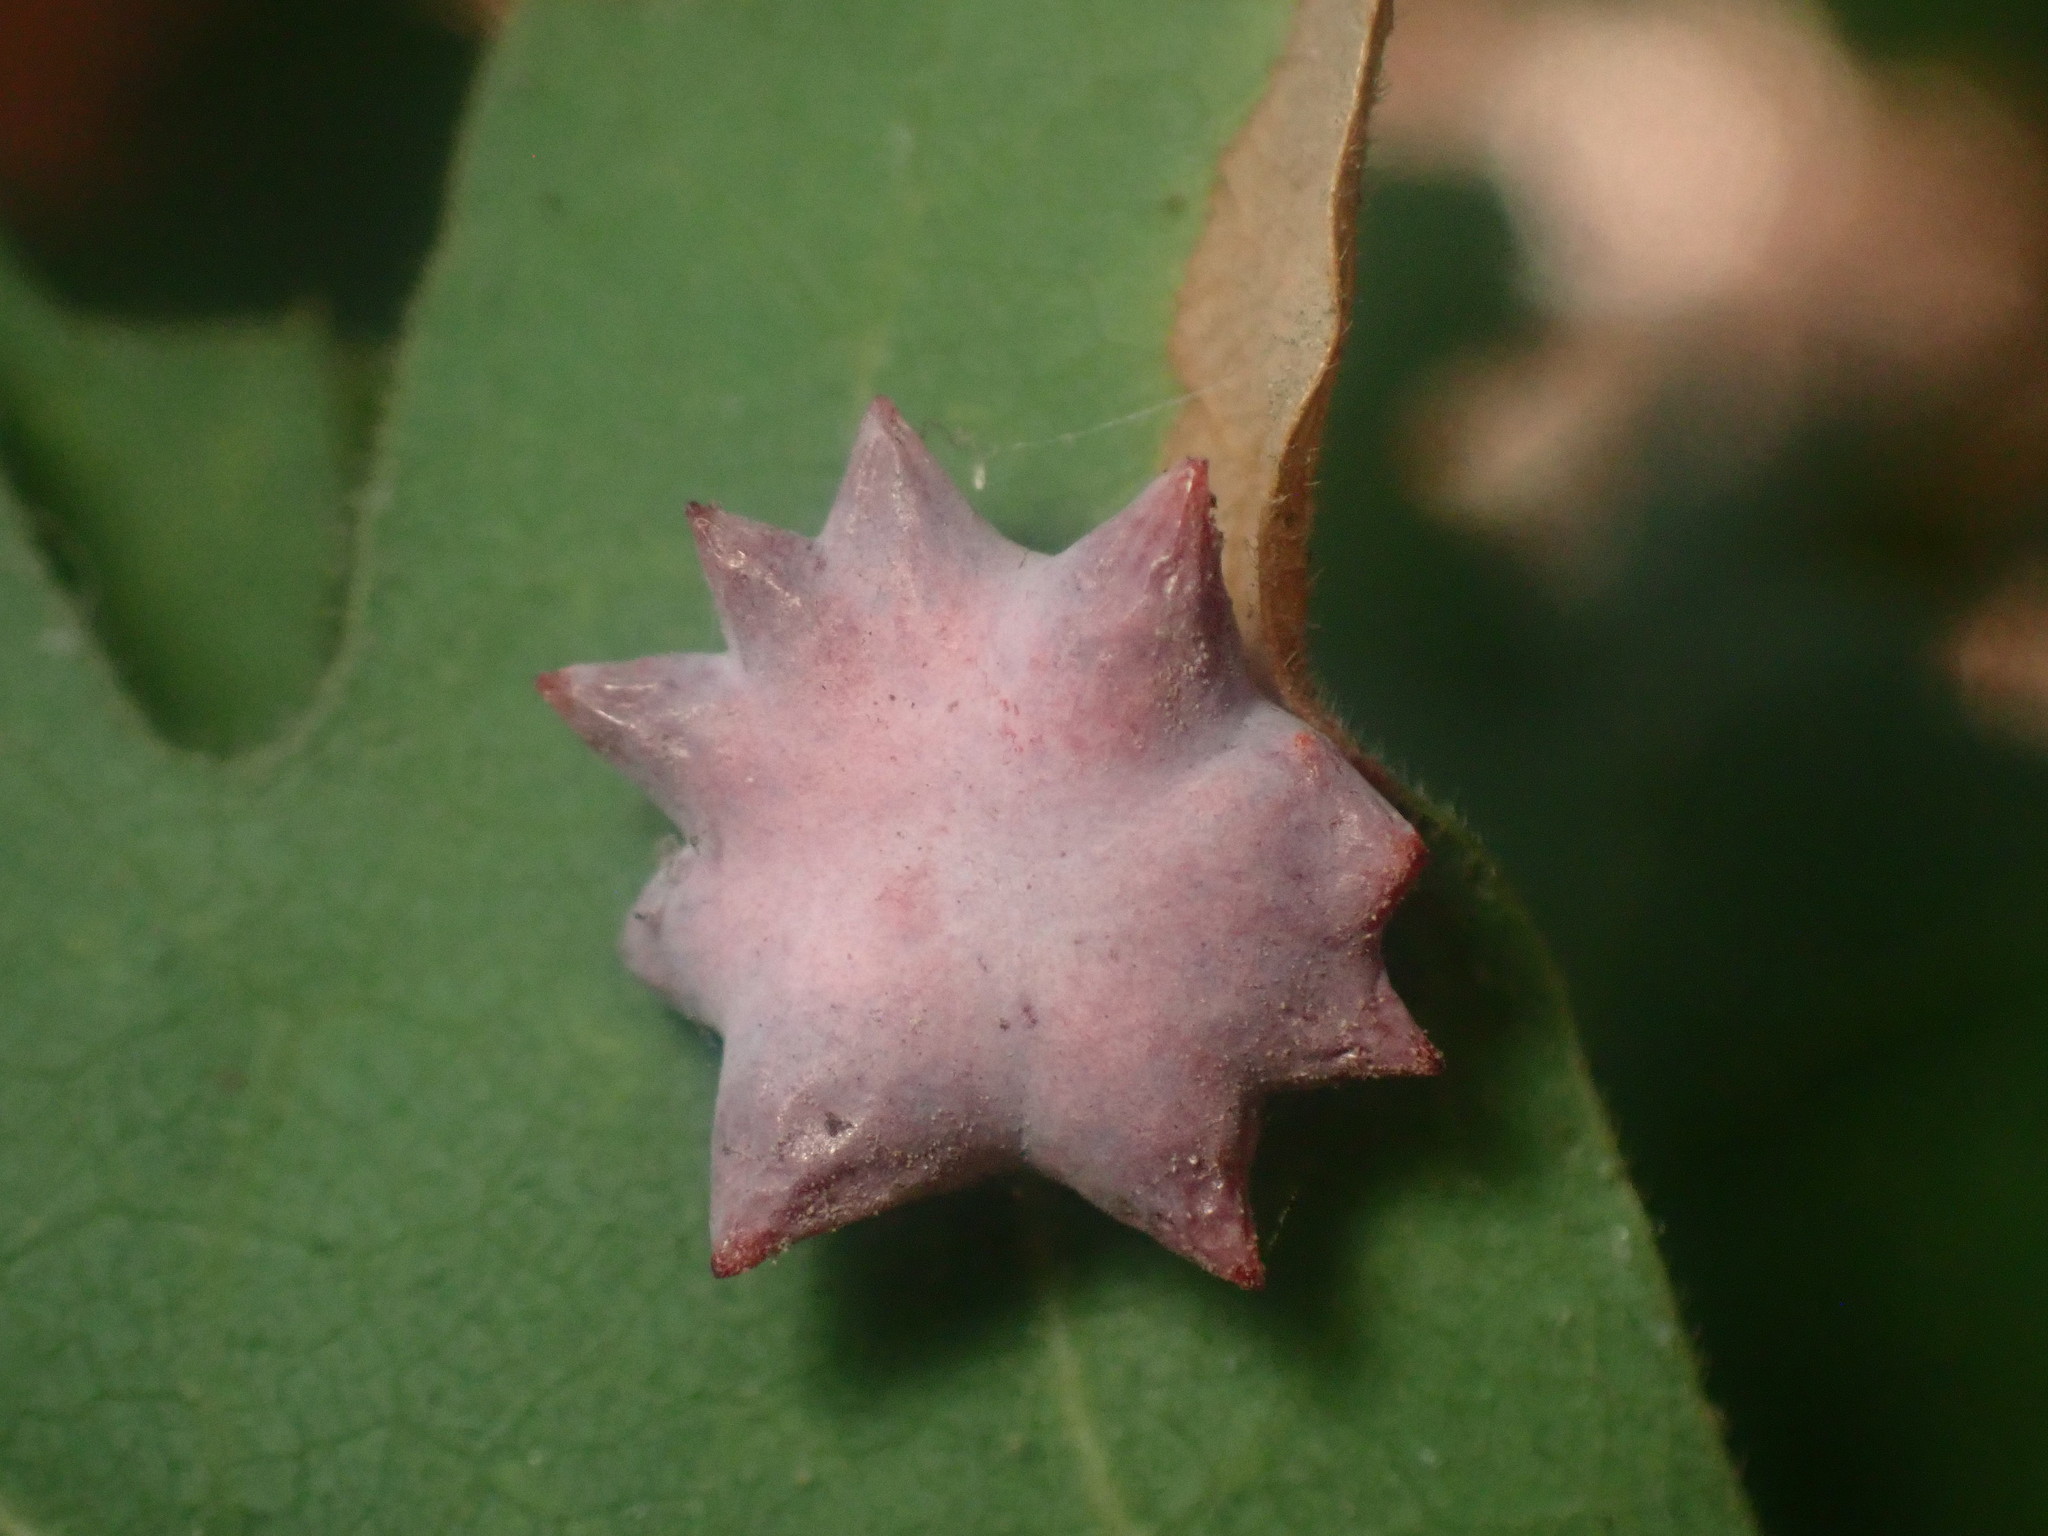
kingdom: Animalia
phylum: Arthropoda
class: Insecta
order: Hymenoptera
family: Cynipidae
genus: Cynips
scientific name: Cynips douglasi
